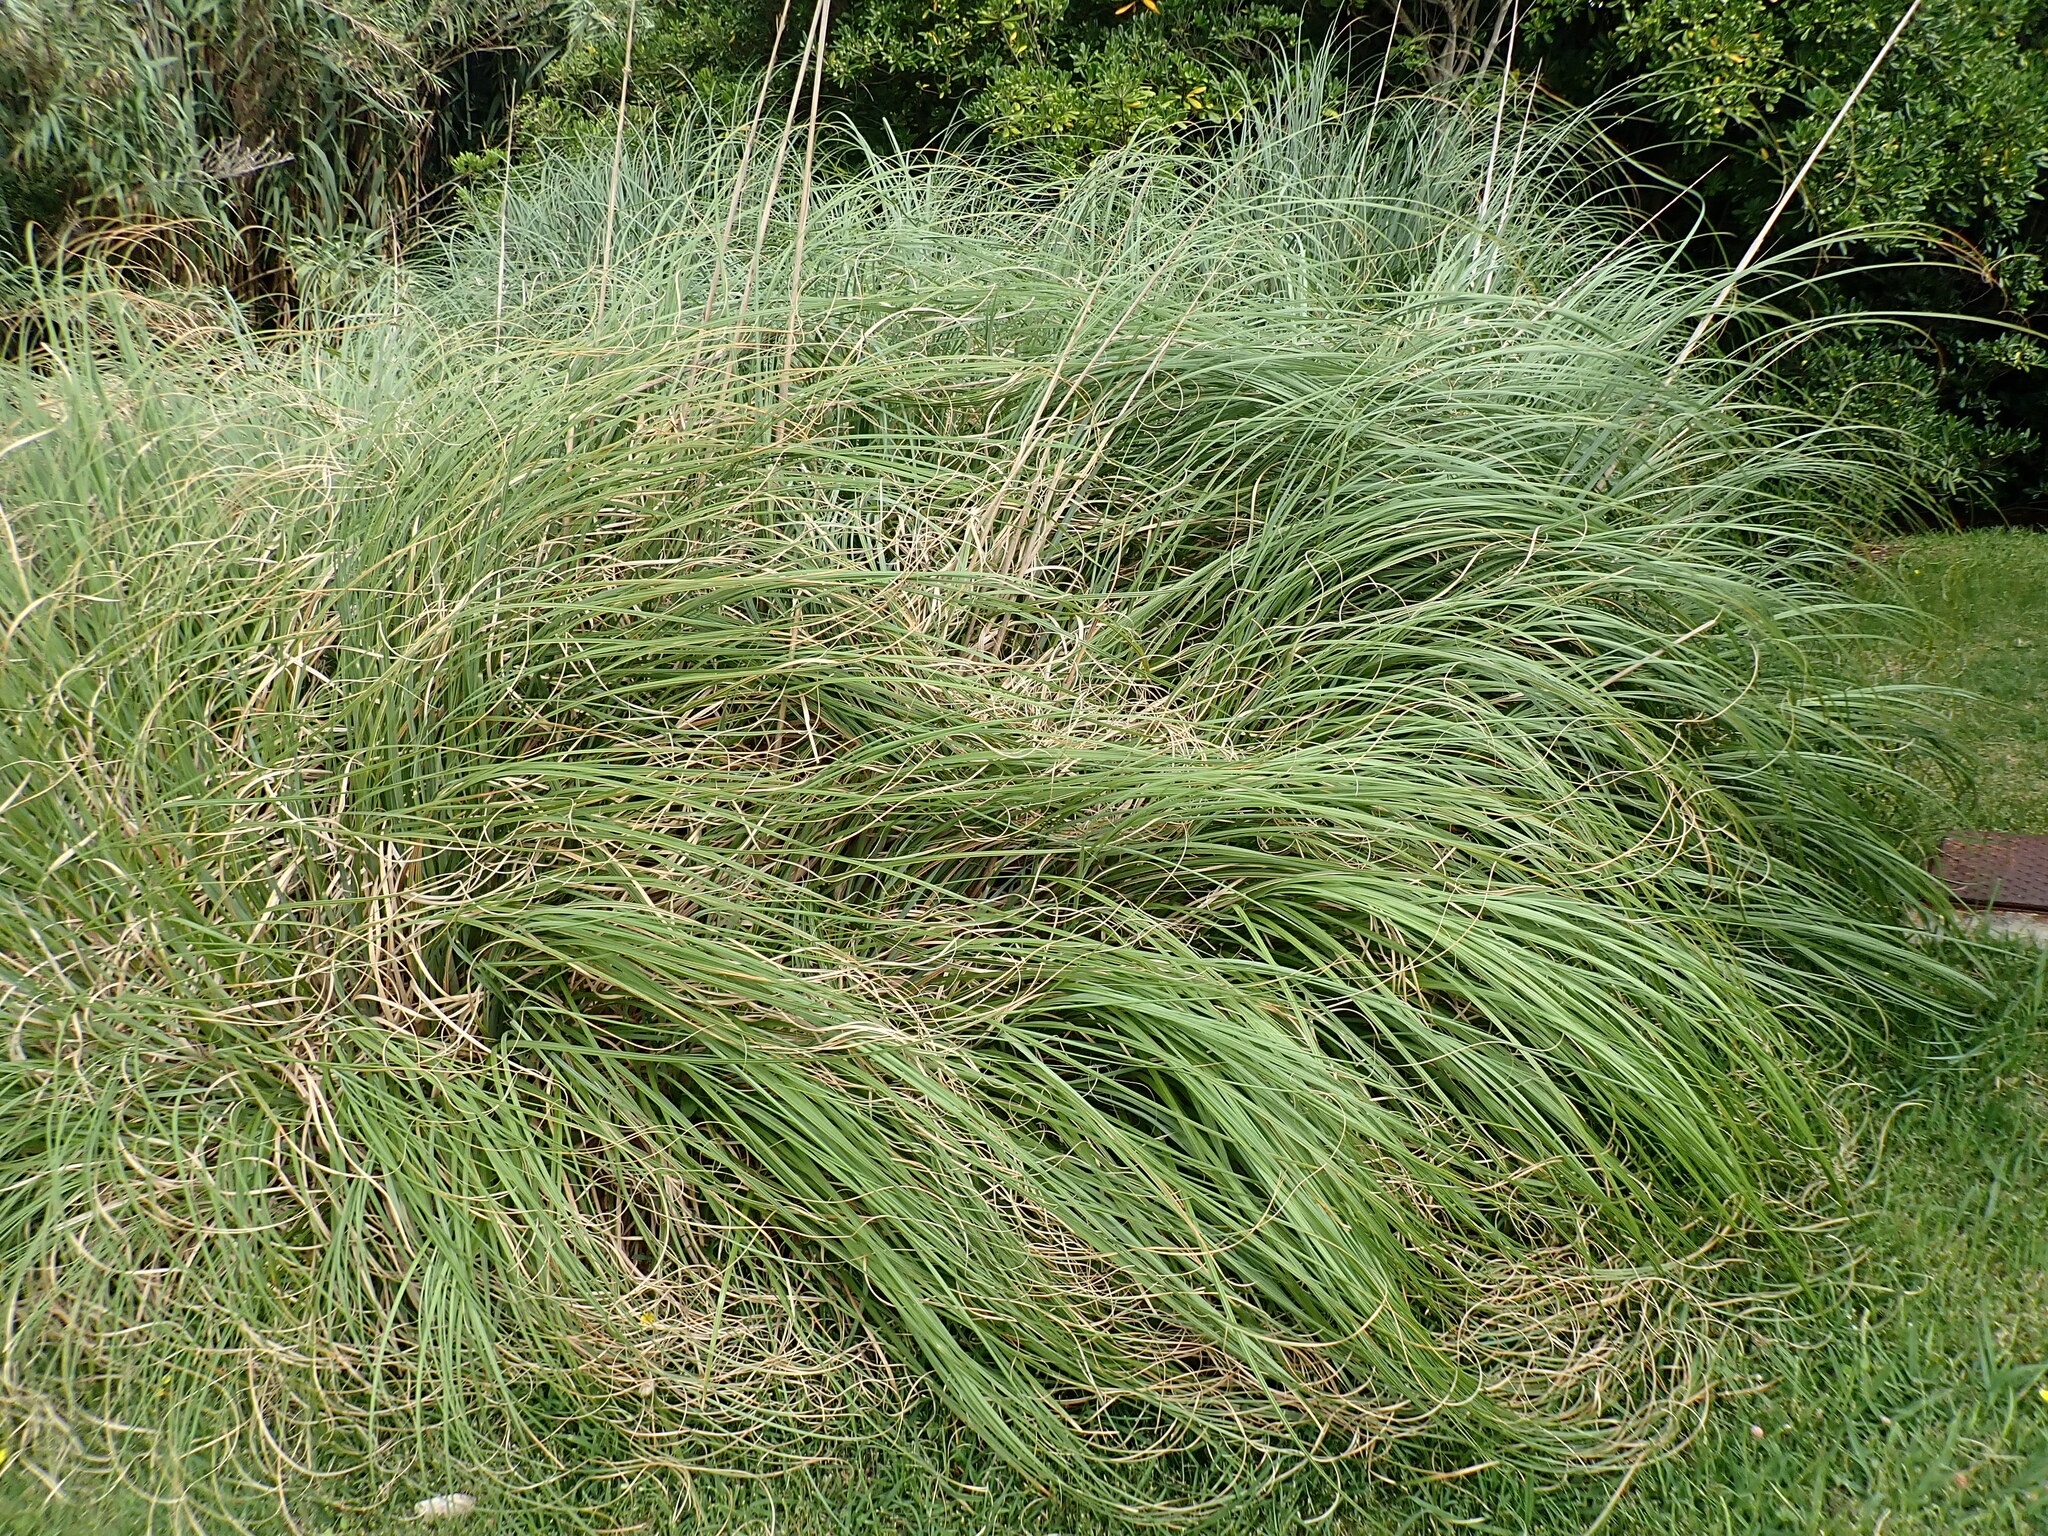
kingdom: Plantae
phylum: Tracheophyta
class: Liliopsida
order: Poales
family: Poaceae
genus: Cortaderia
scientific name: Cortaderia selloana
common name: Uruguayan pampas grass
